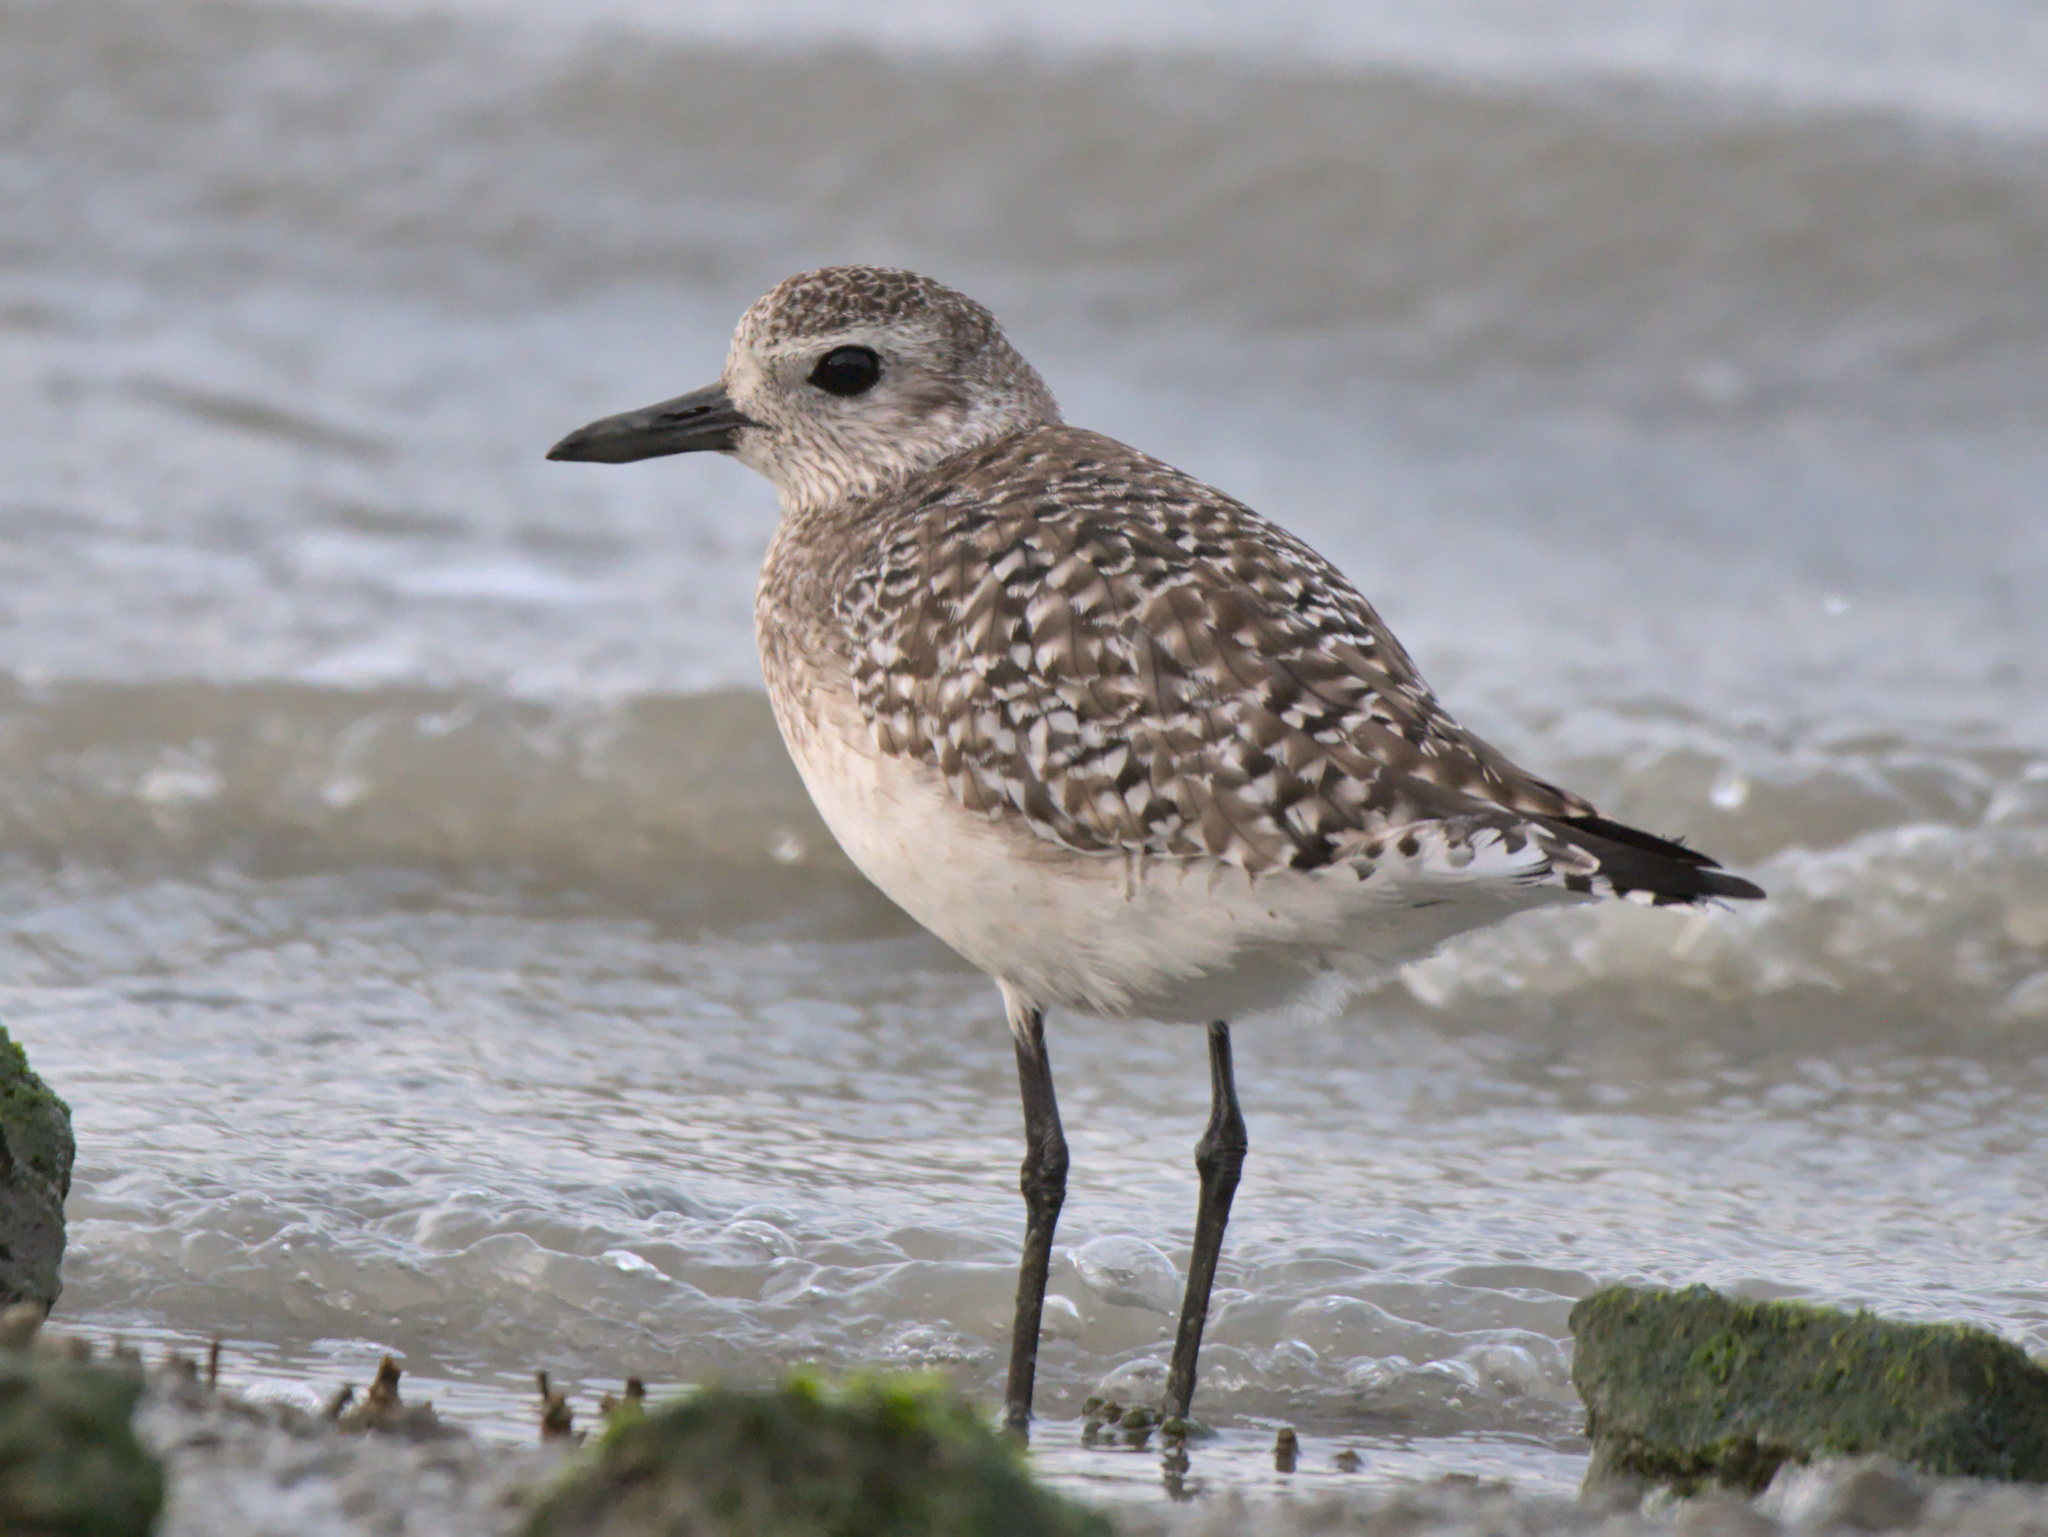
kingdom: Animalia
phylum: Chordata
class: Aves
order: Charadriiformes
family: Charadriidae
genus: Pluvialis
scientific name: Pluvialis squatarola
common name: Grey plover
